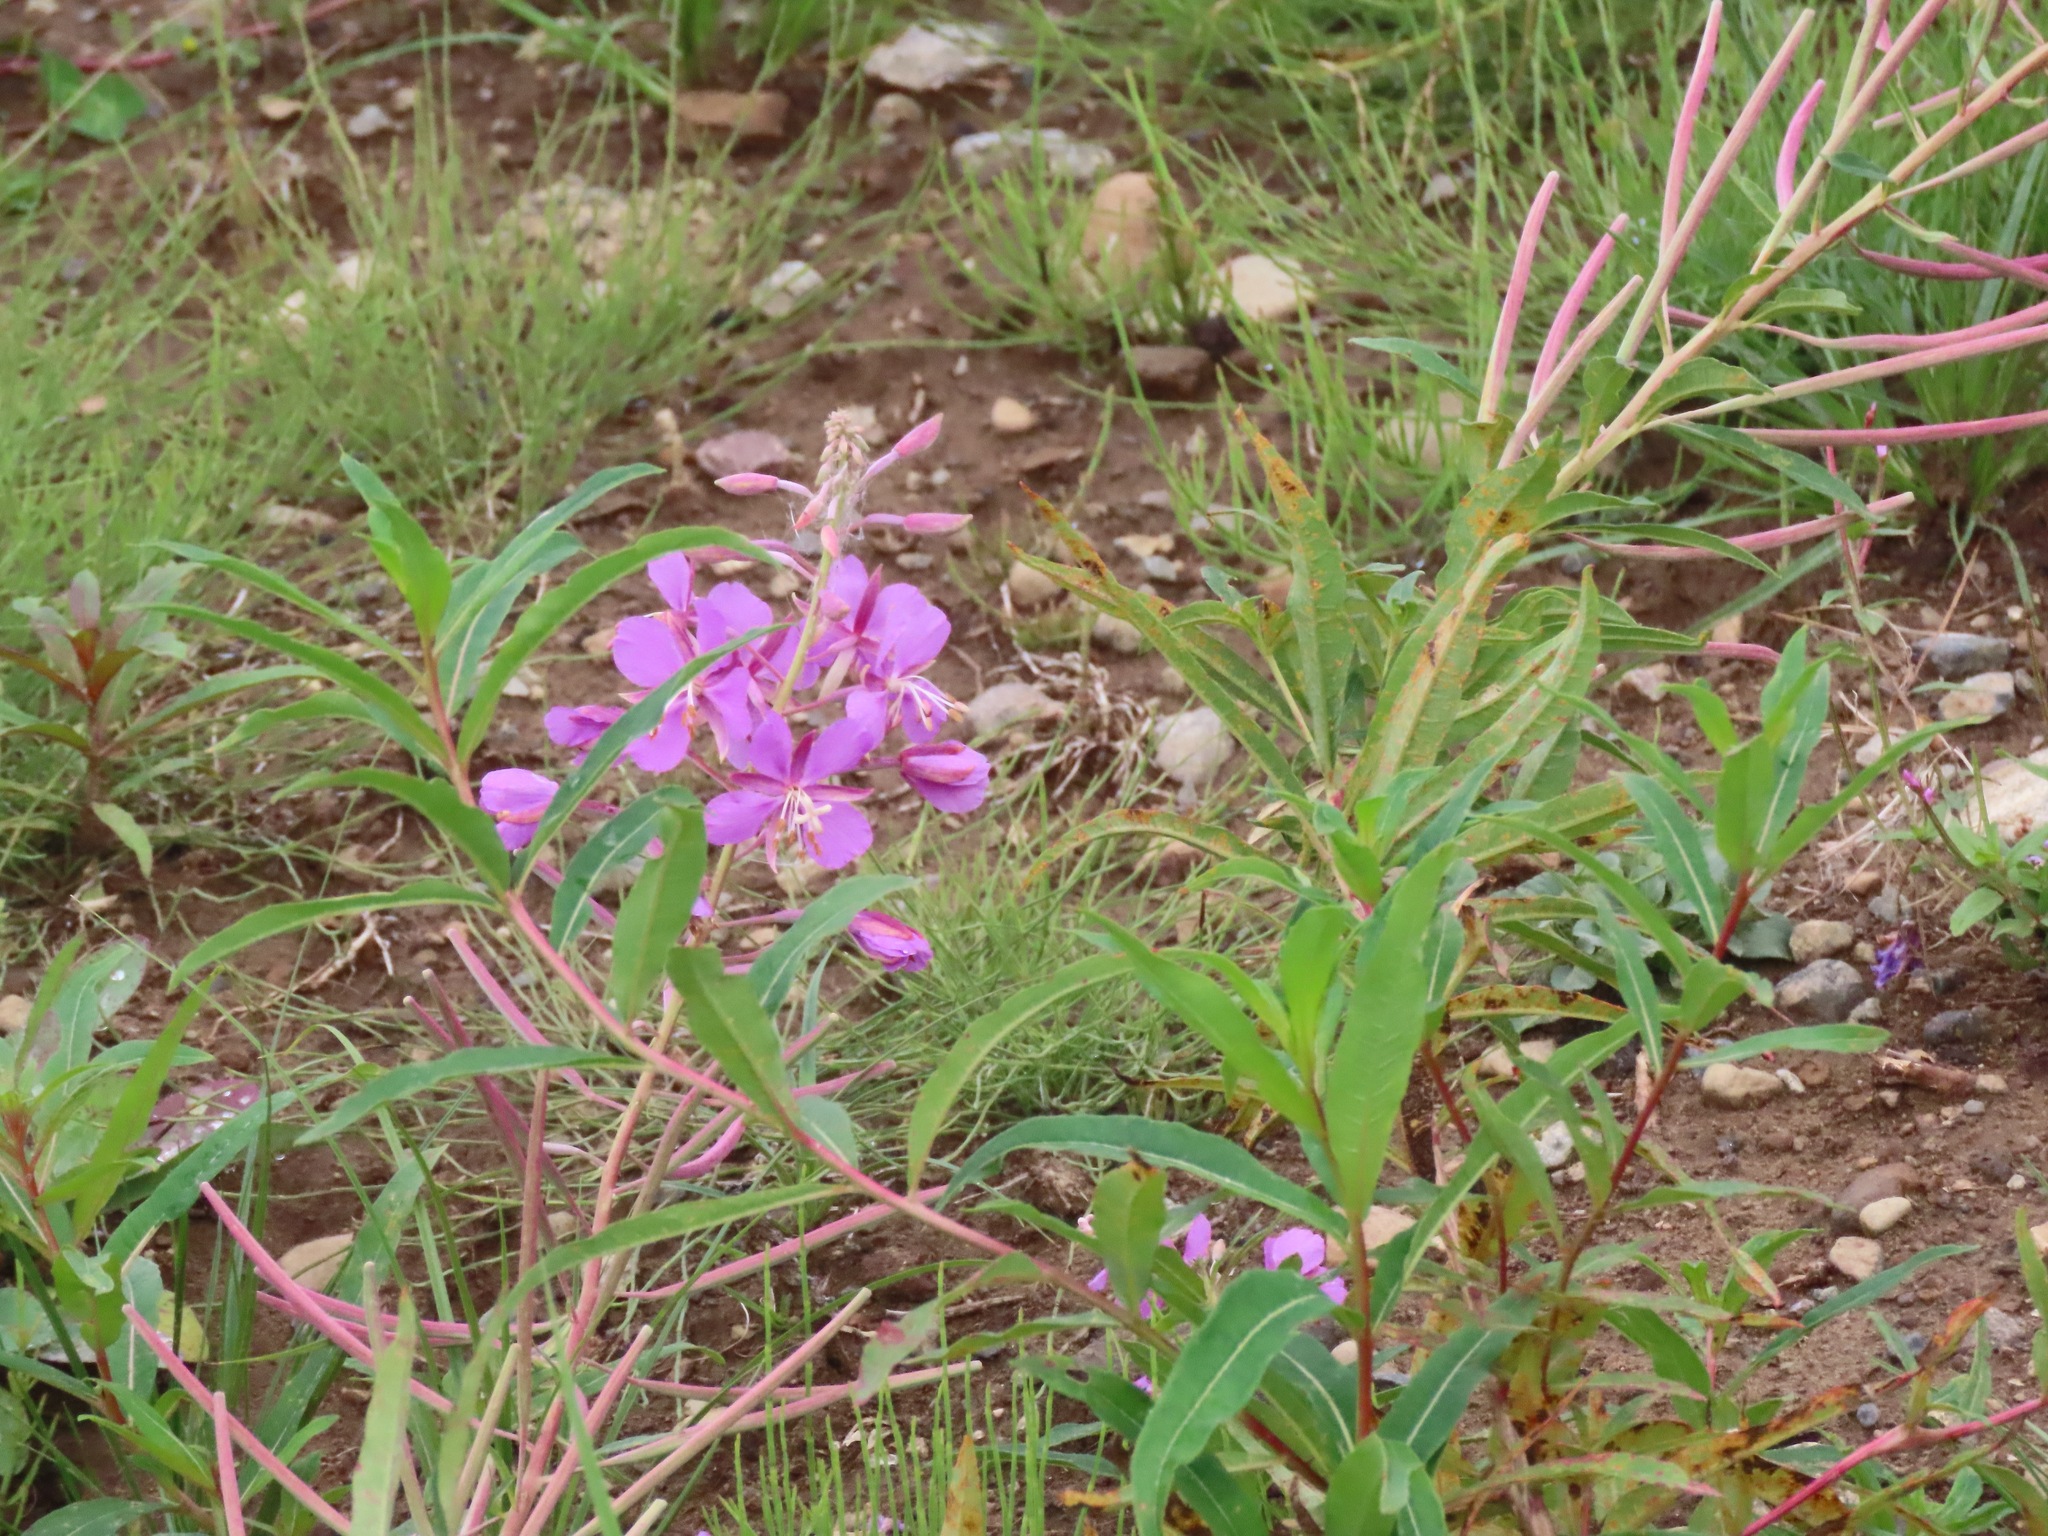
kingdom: Plantae
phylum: Tracheophyta
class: Magnoliopsida
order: Myrtales
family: Onagraceae
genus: Chamaenerion
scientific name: Chamaenerion angustifolium
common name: Fireweed
